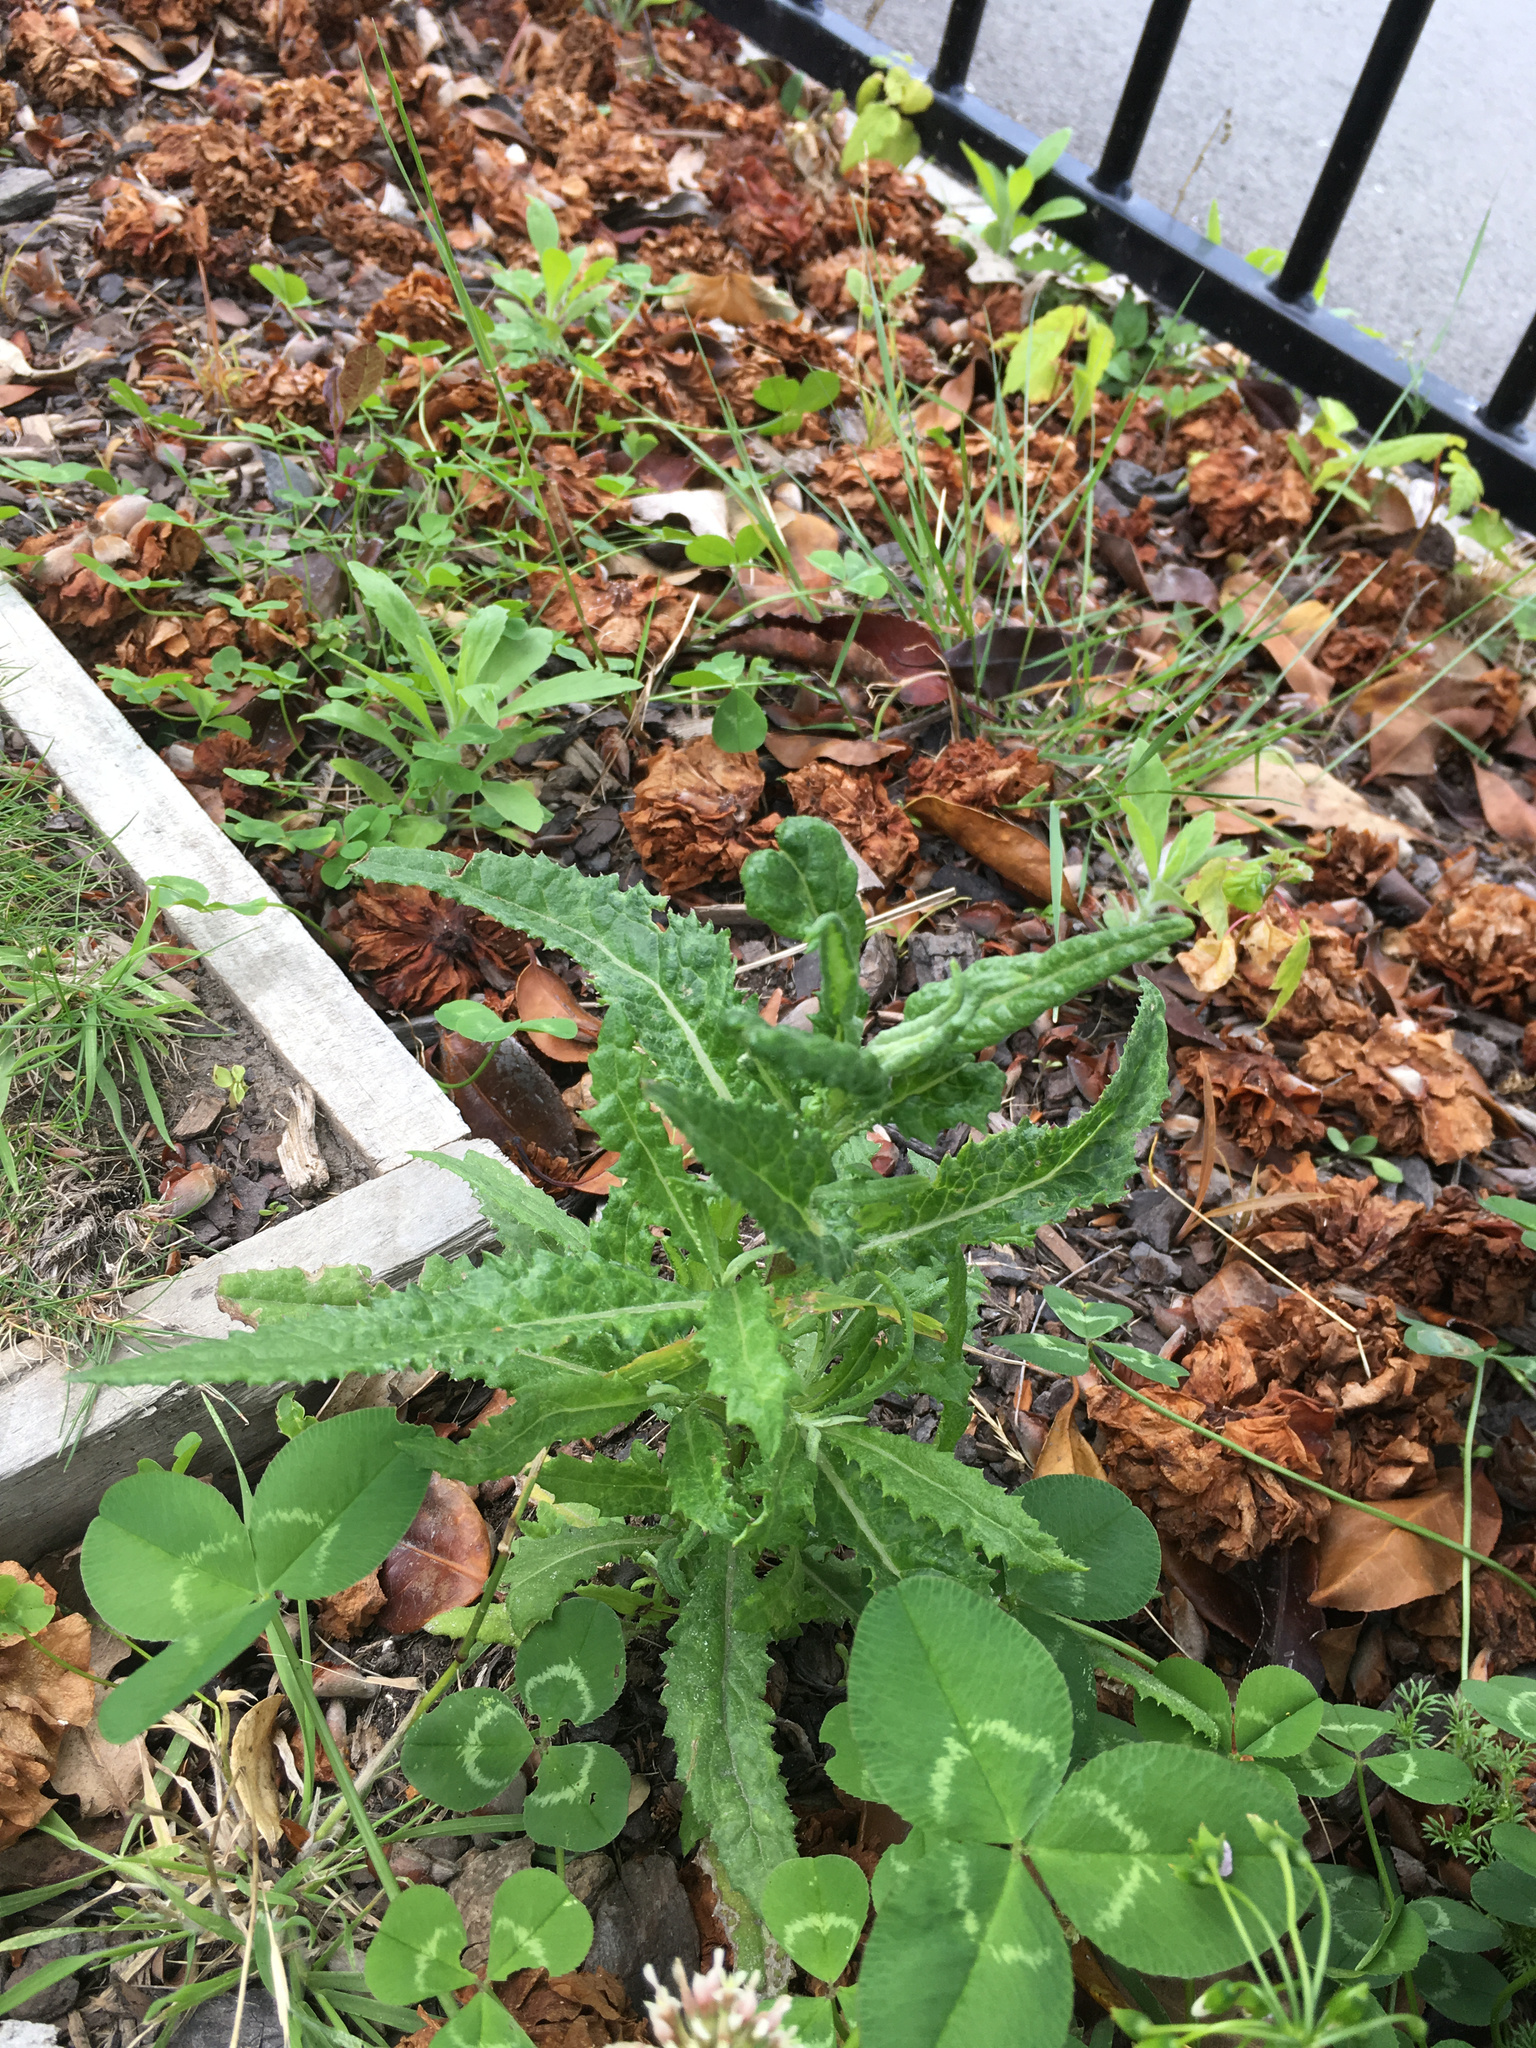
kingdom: Plantae
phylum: Tracheophyta
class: Magnoliopsida
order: Asterales
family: Asteraceae
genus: Senecio
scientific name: Senecio minimus
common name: Toothed fireweed
